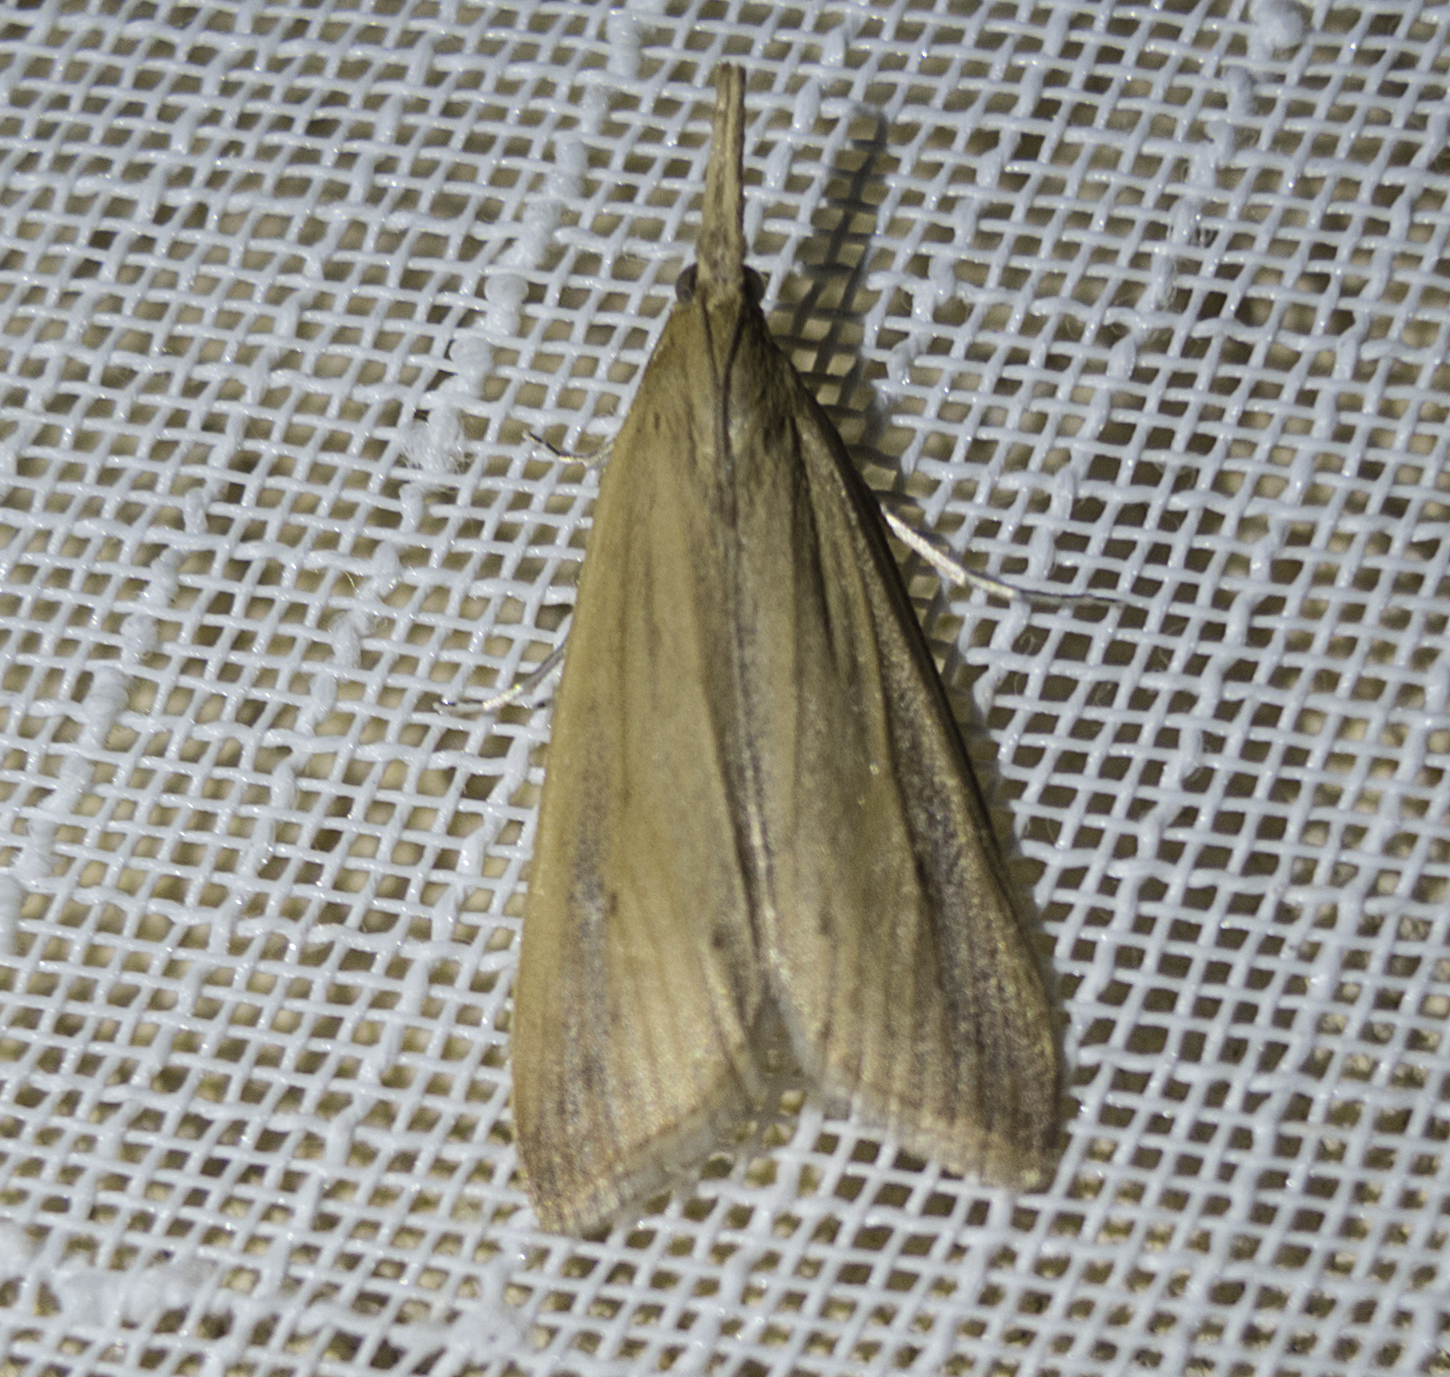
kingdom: Animalia
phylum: Arthropoda
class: Insecta
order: Lepidoptera
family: Crambidae
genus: Schoenobius
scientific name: Schoenobius gigantella
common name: Giant water-veneer
